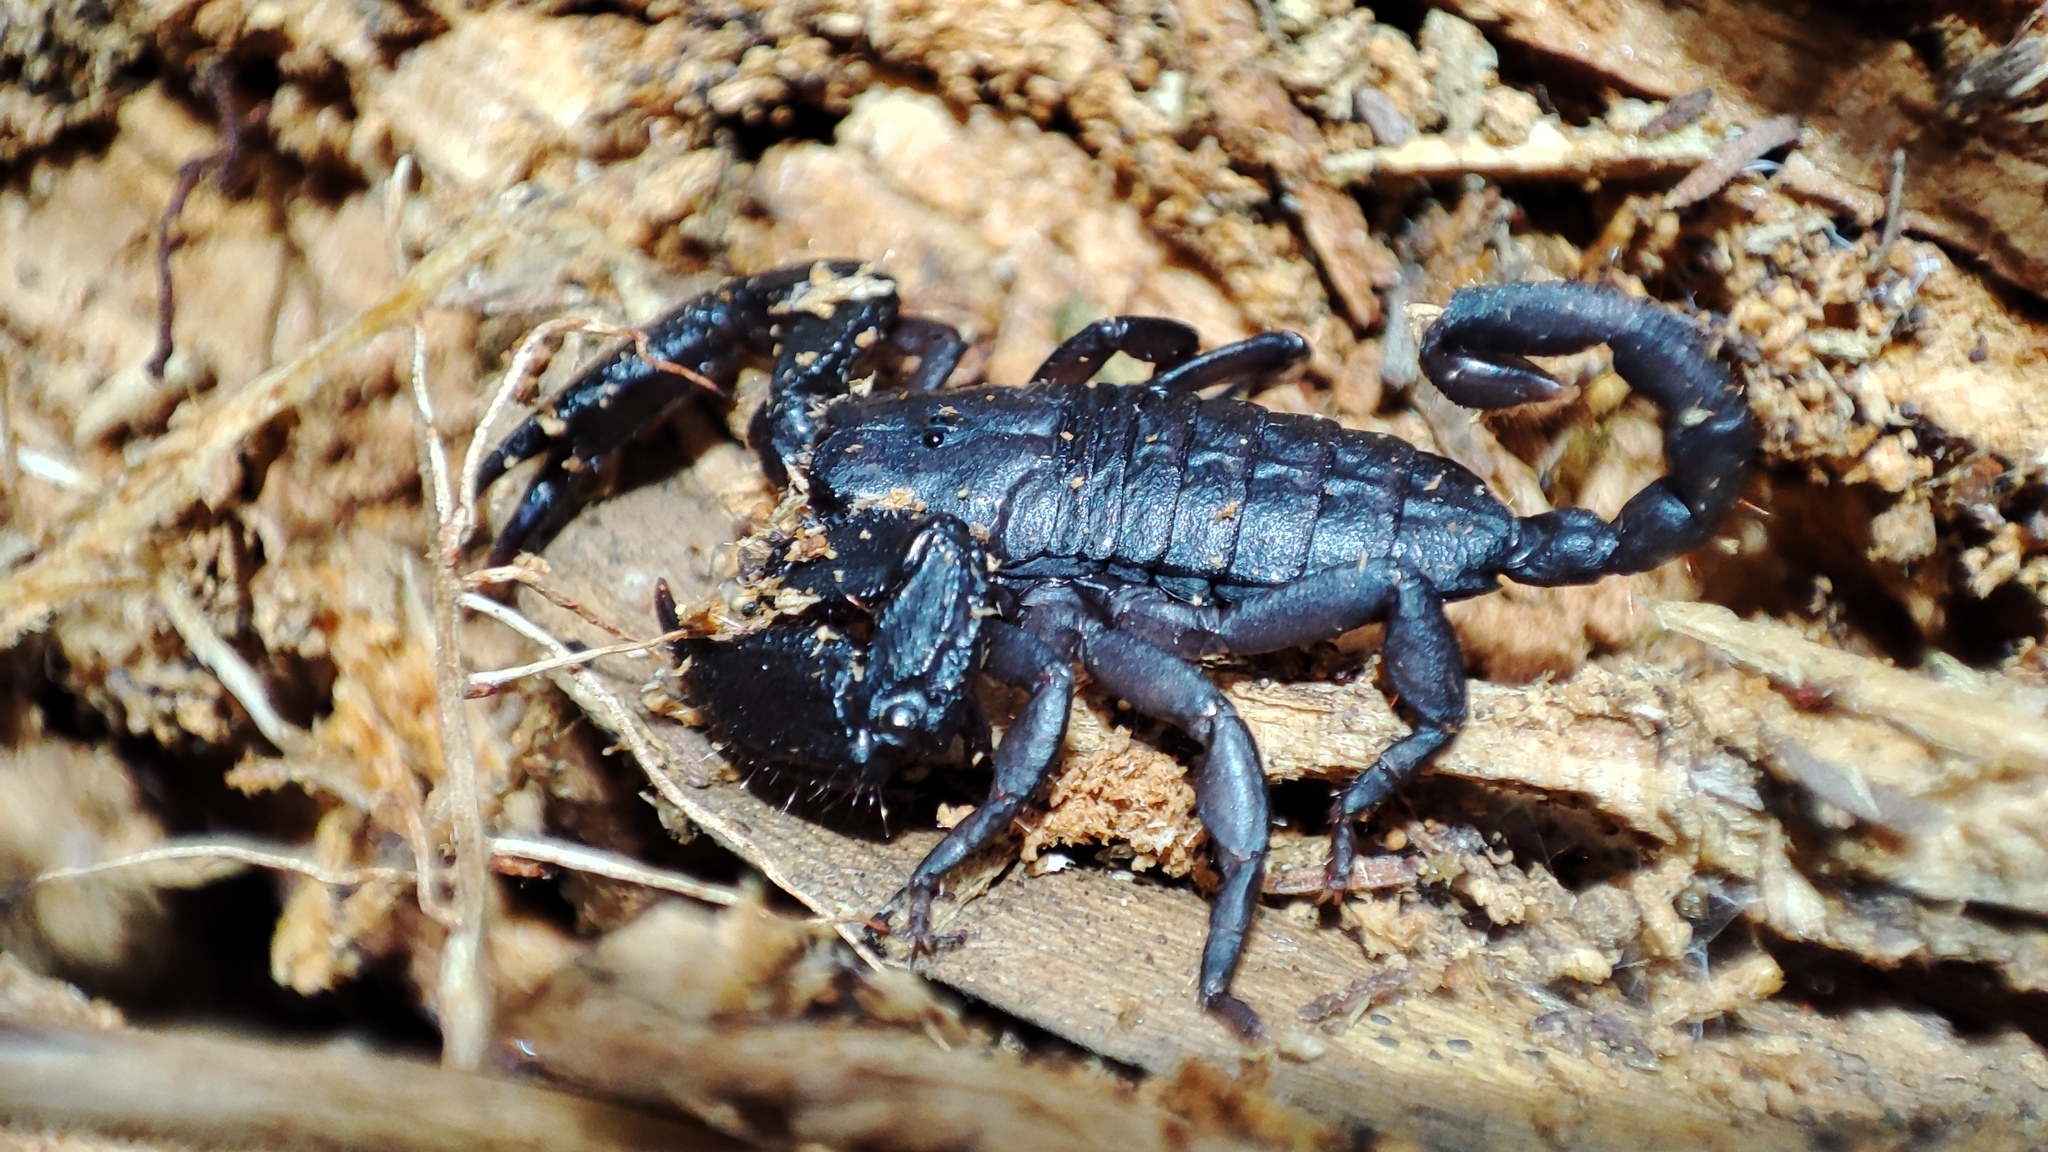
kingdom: Animalia
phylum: Arthropoda
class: Arachnida
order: Scorpiones
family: Hormuridae
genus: Opisthacanthus
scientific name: Opisthacanthus capensis
